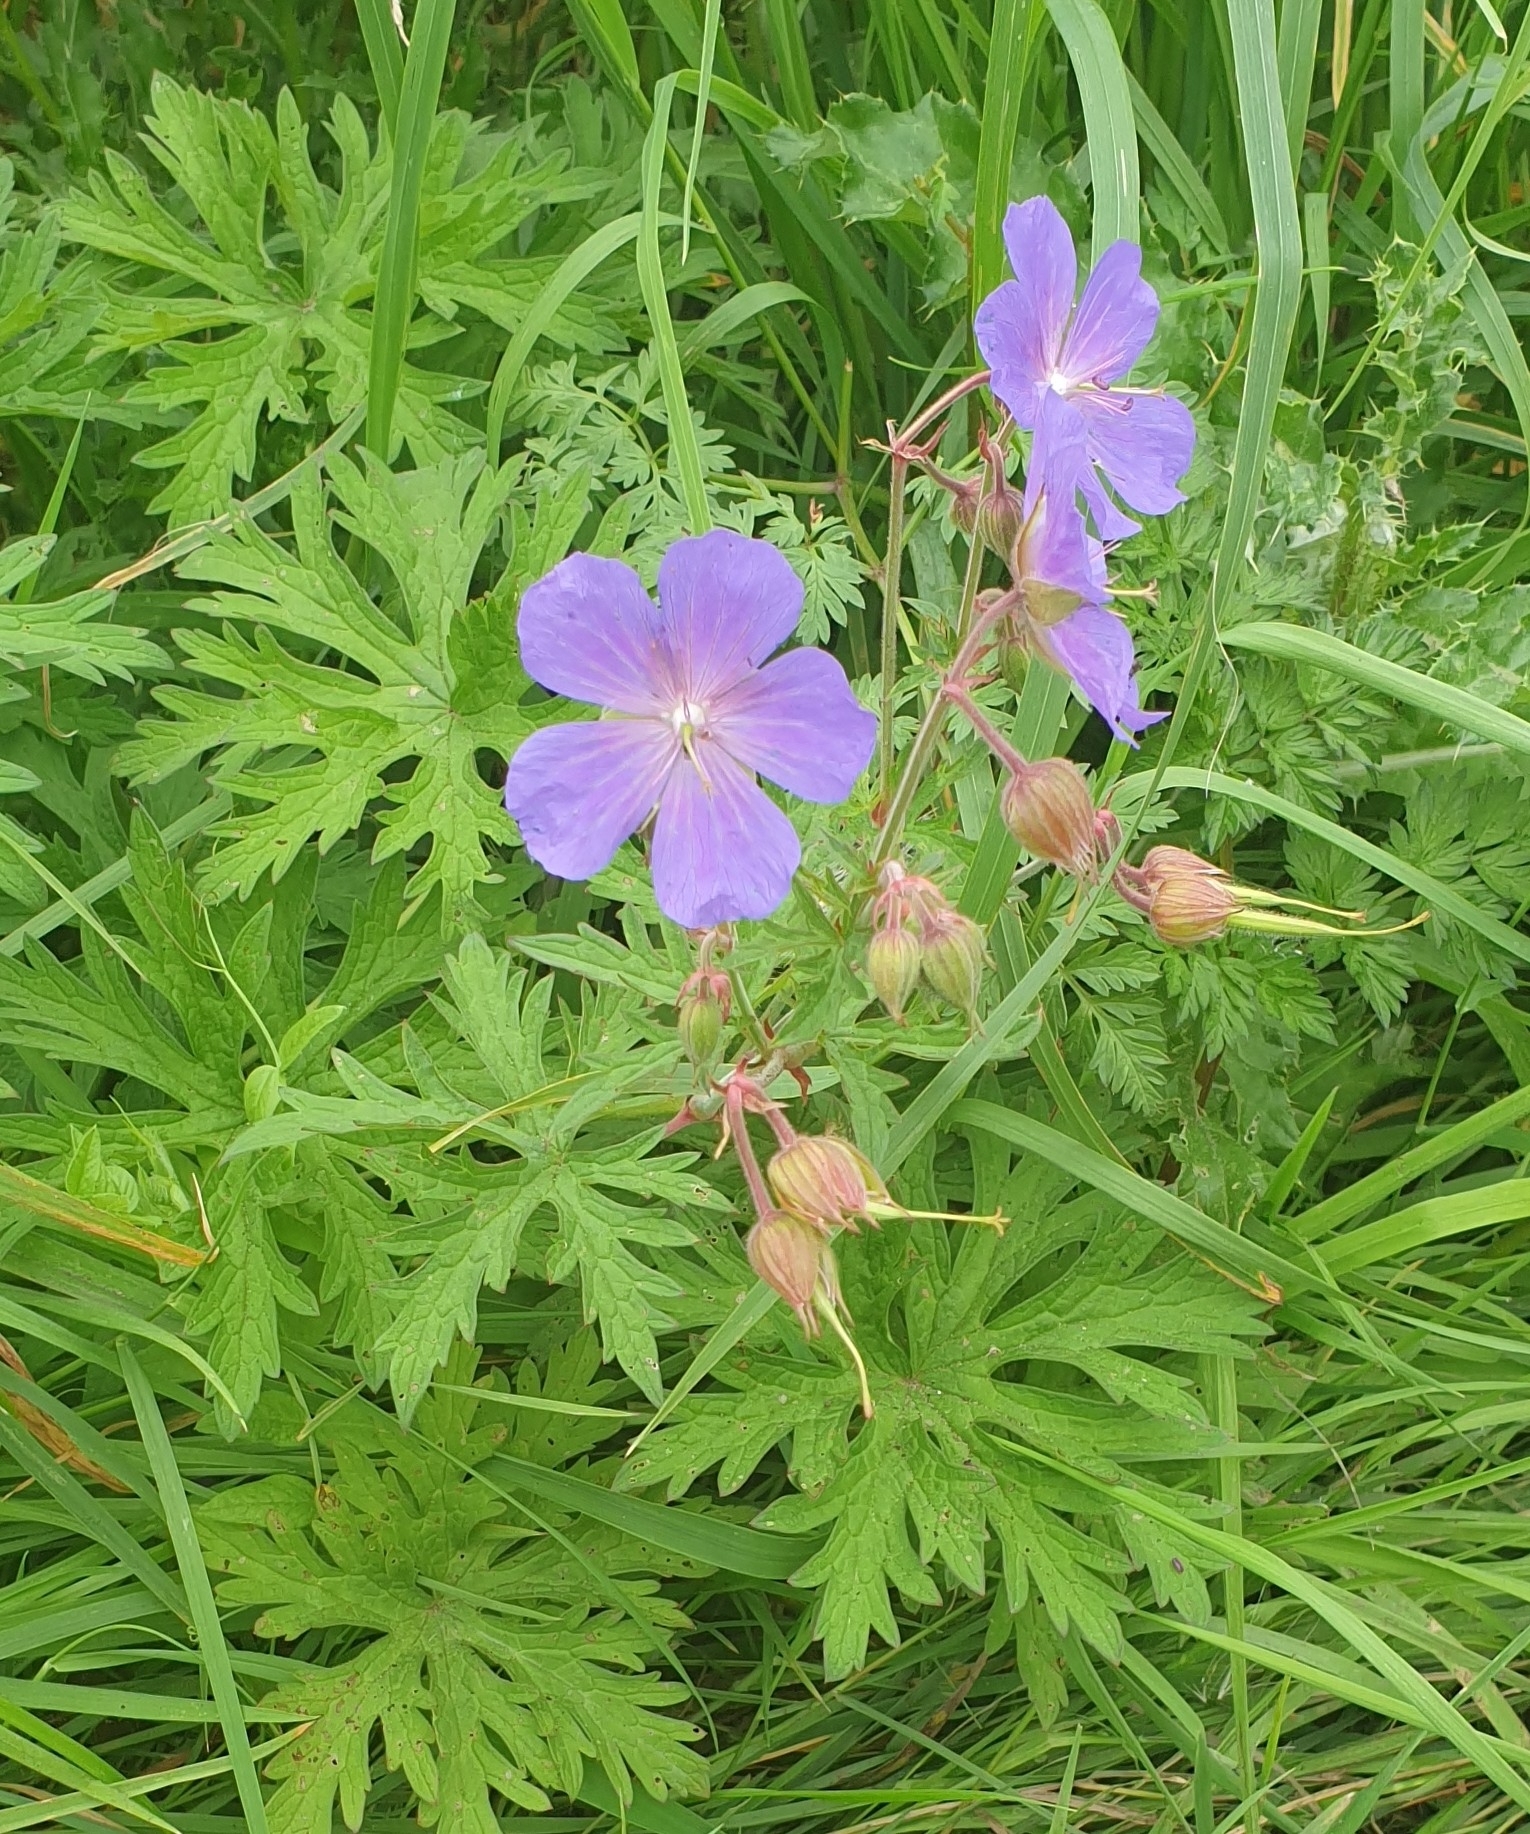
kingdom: Plantae
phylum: Tracheophyta
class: Magnoliopsida
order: Geraniales
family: Geraniaceae
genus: Geranium
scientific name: Geranium pratense
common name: Meadow crane's-bill
